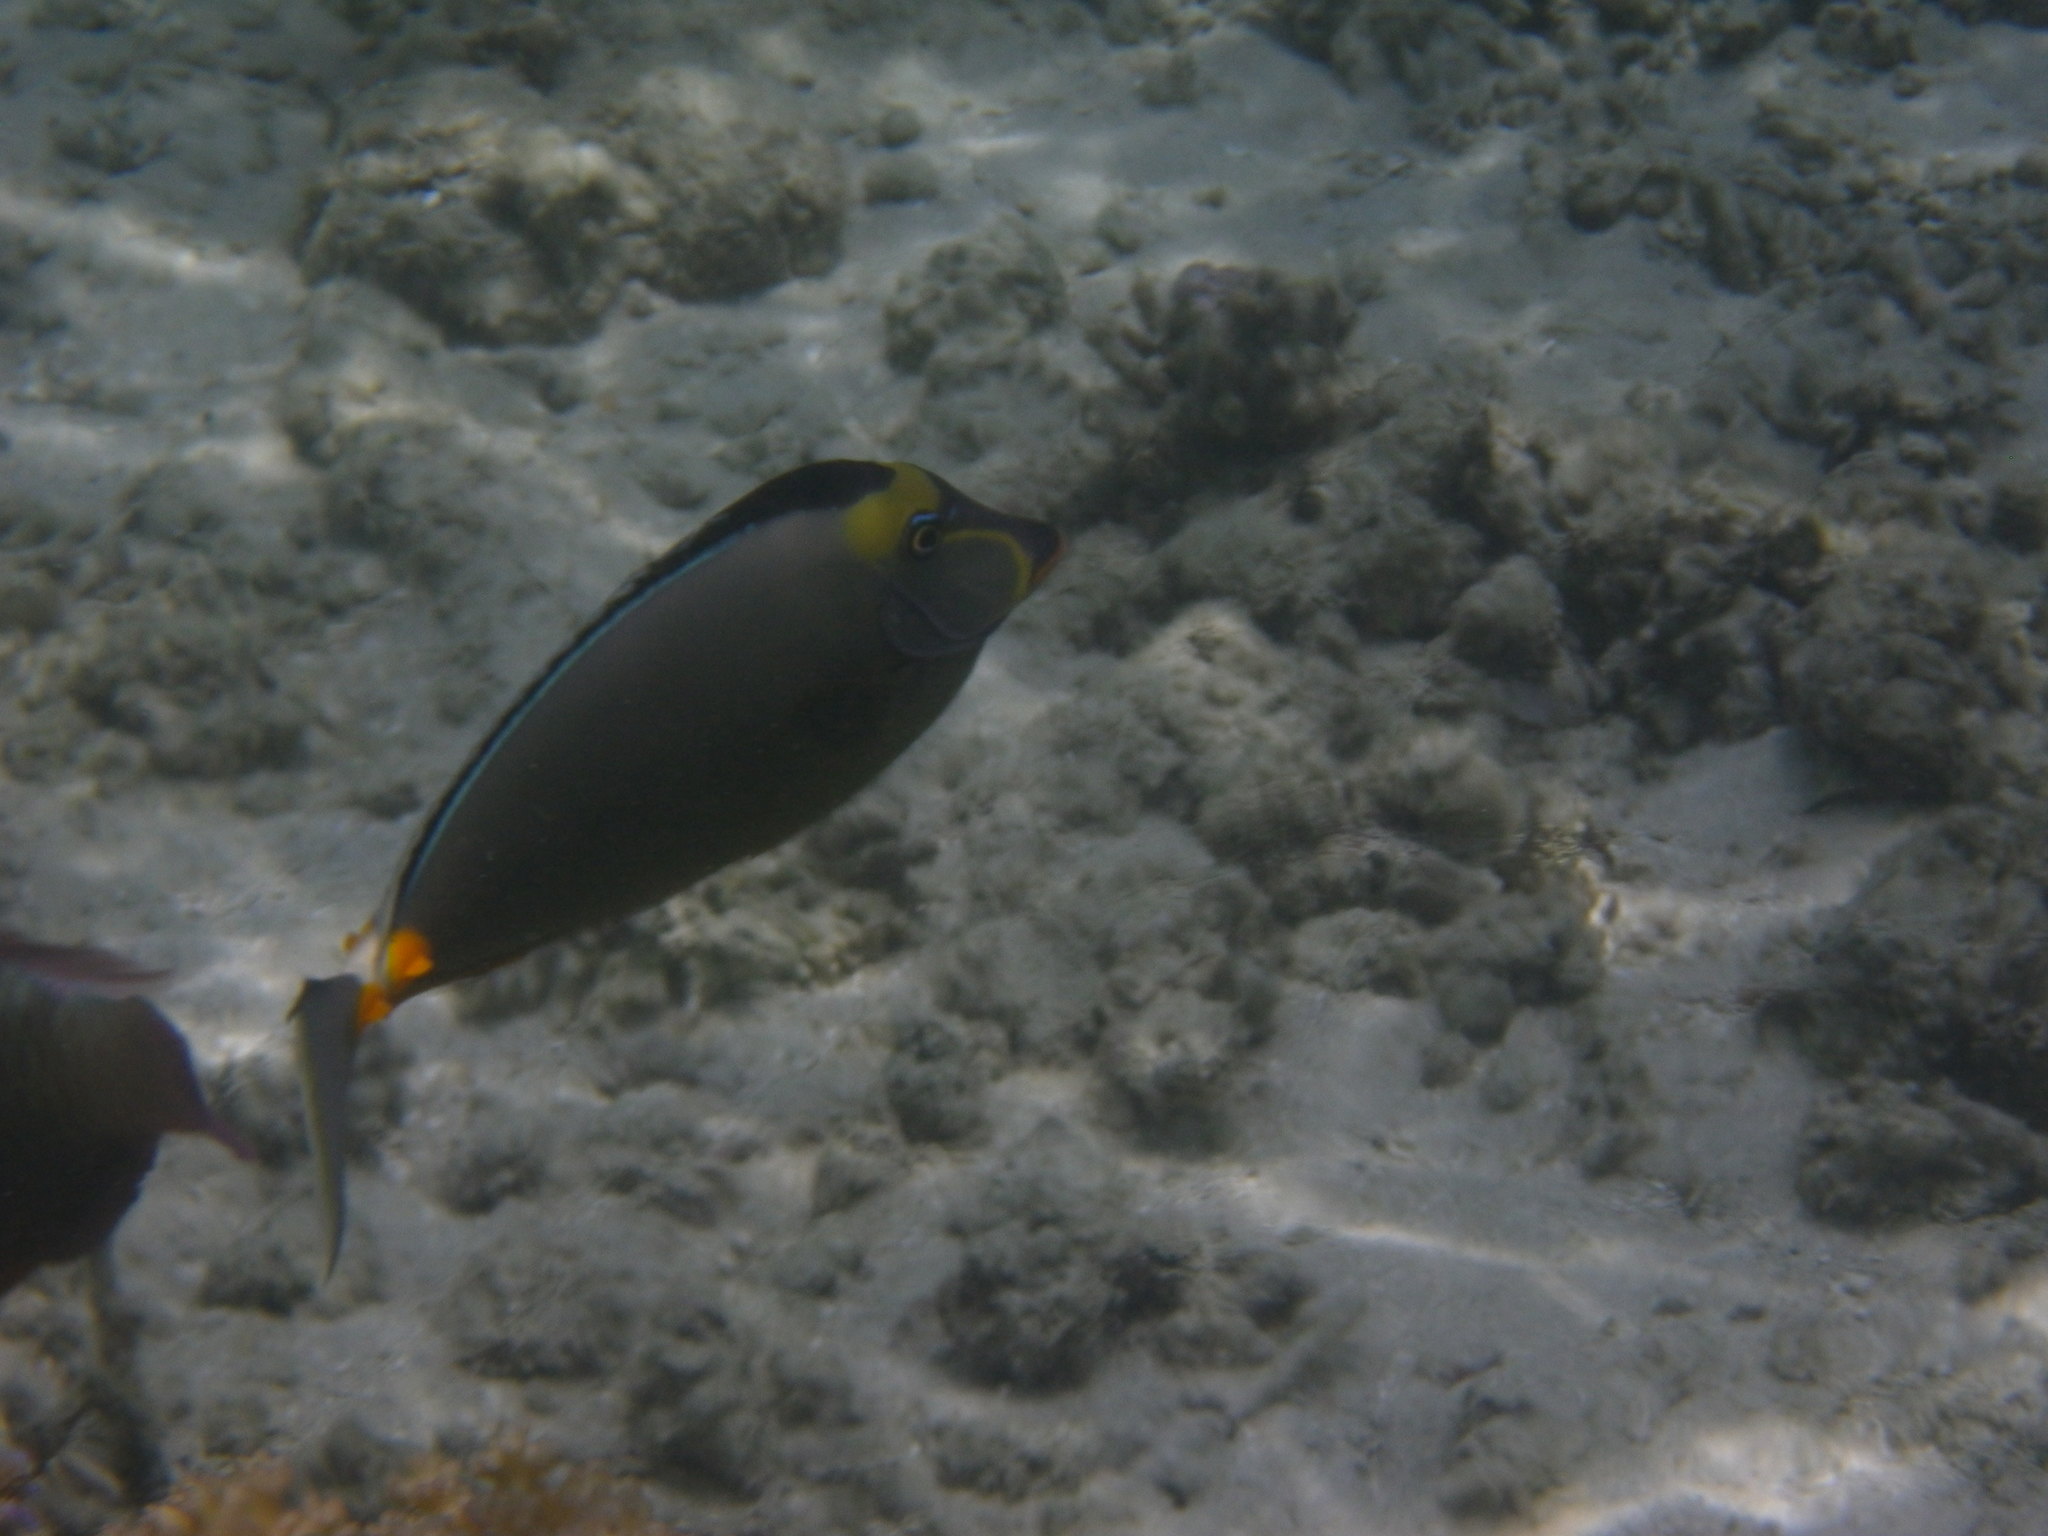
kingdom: Animalia
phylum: Chordata
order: Perciformes
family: Acanthuridae
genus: Naso
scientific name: Naso lituratus
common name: Orangespine unicornfish
